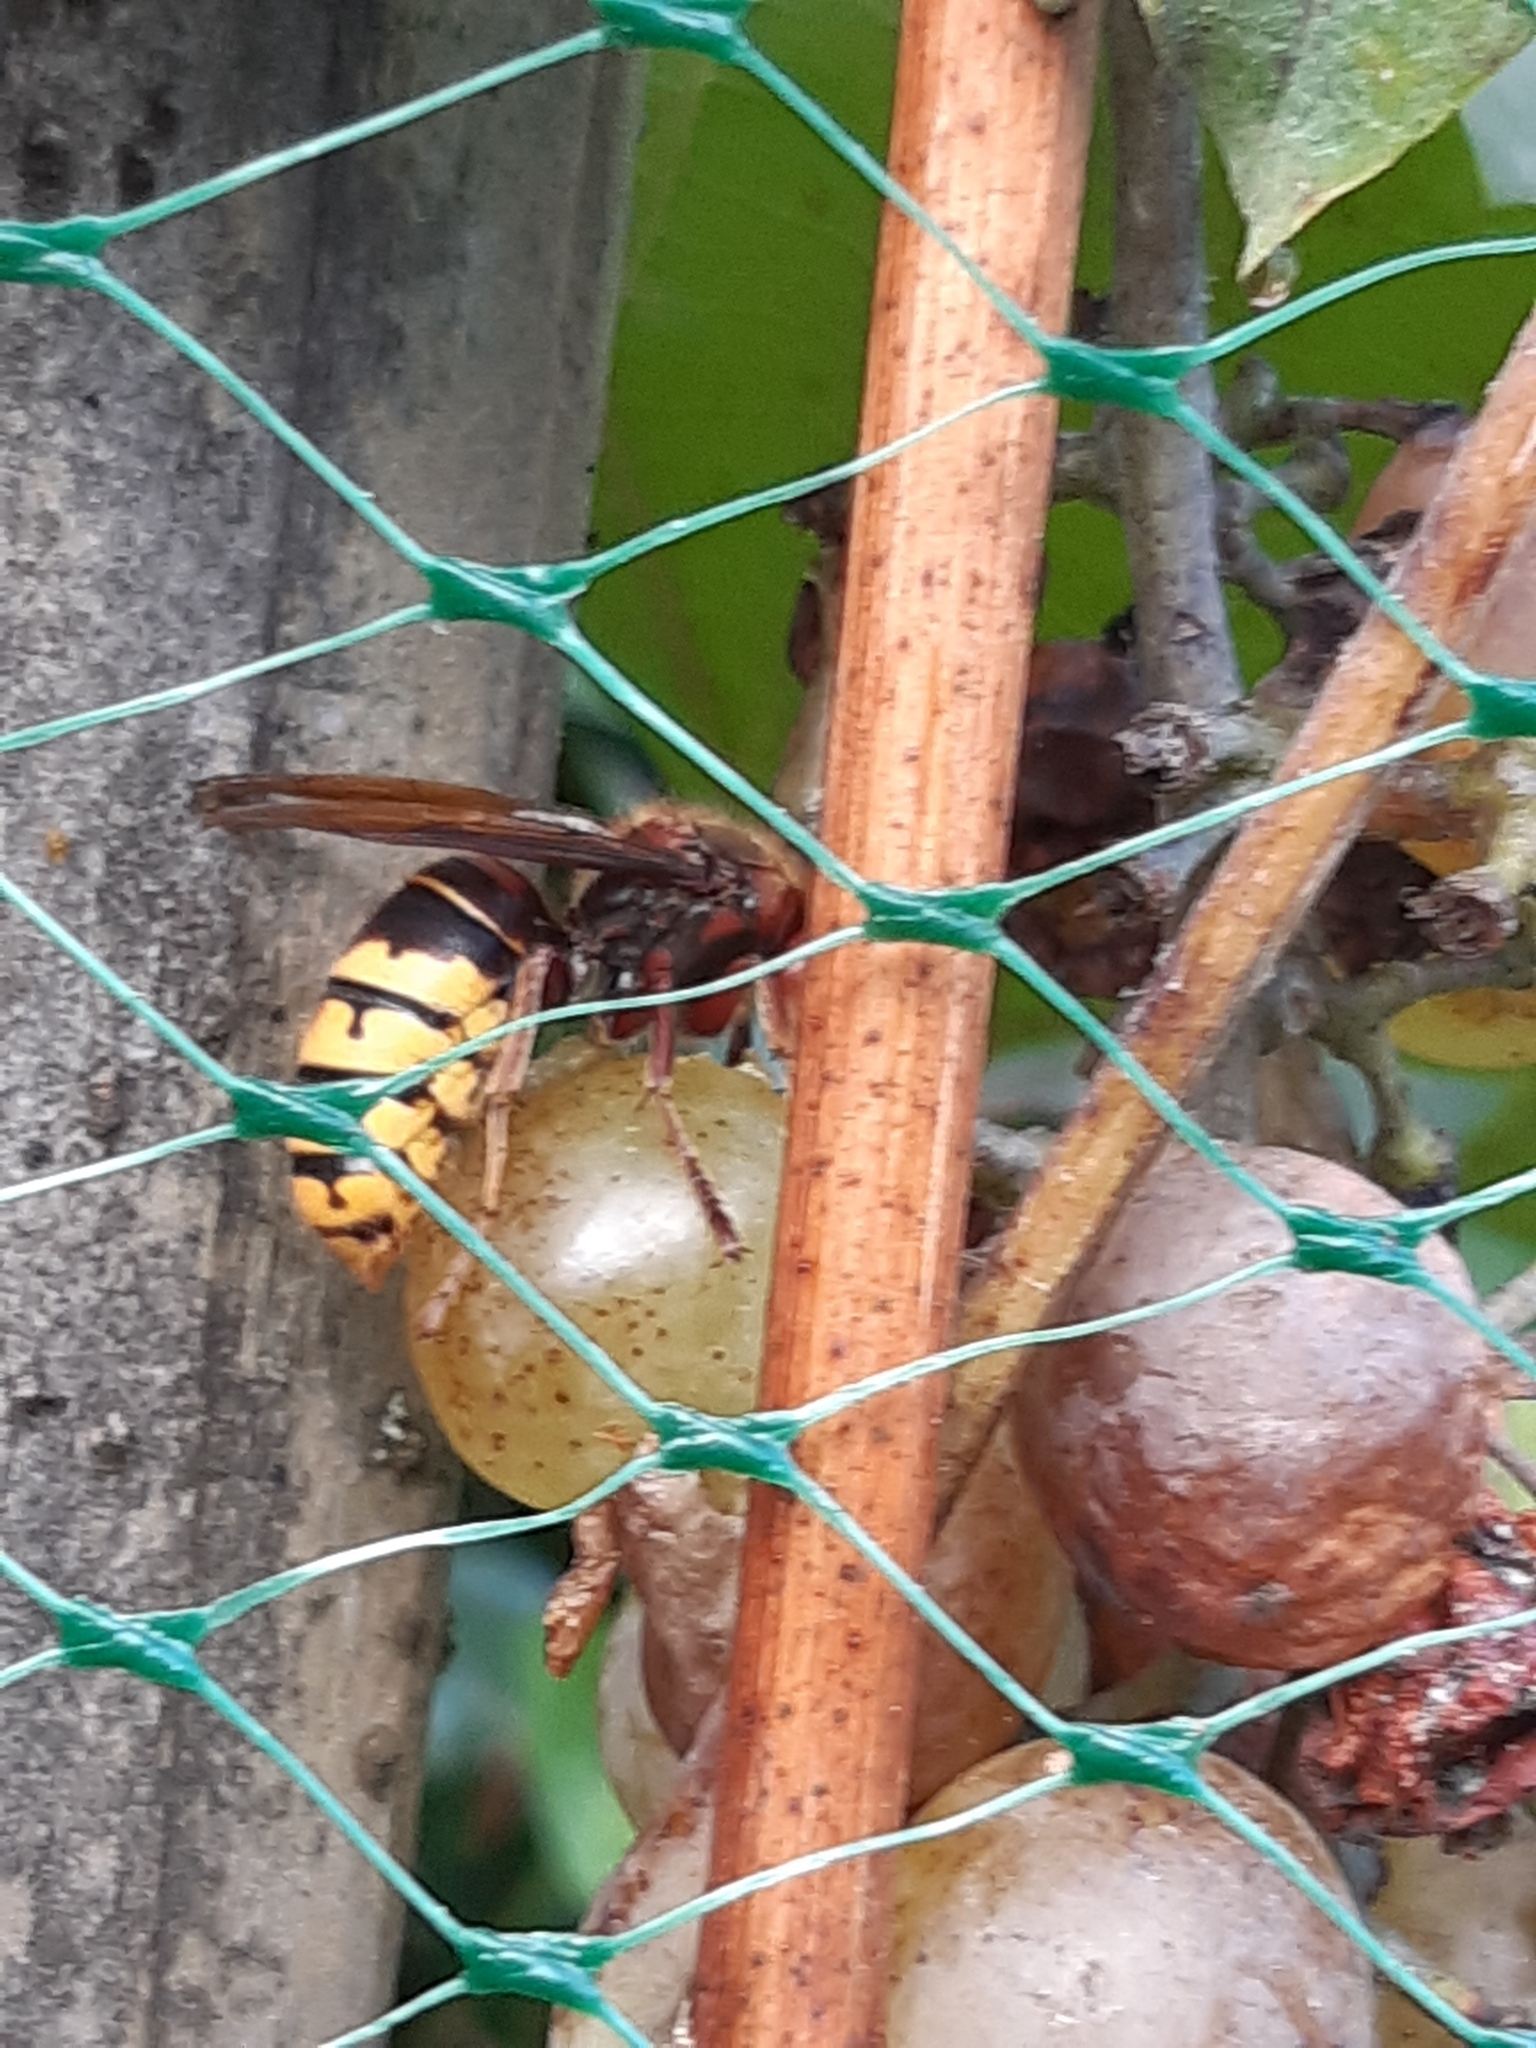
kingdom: Animalia
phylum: Arthropoda
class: Insecta
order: Hymenoptera
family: Vespidae
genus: Vespa
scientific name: Vespa crabro
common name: Hornet
